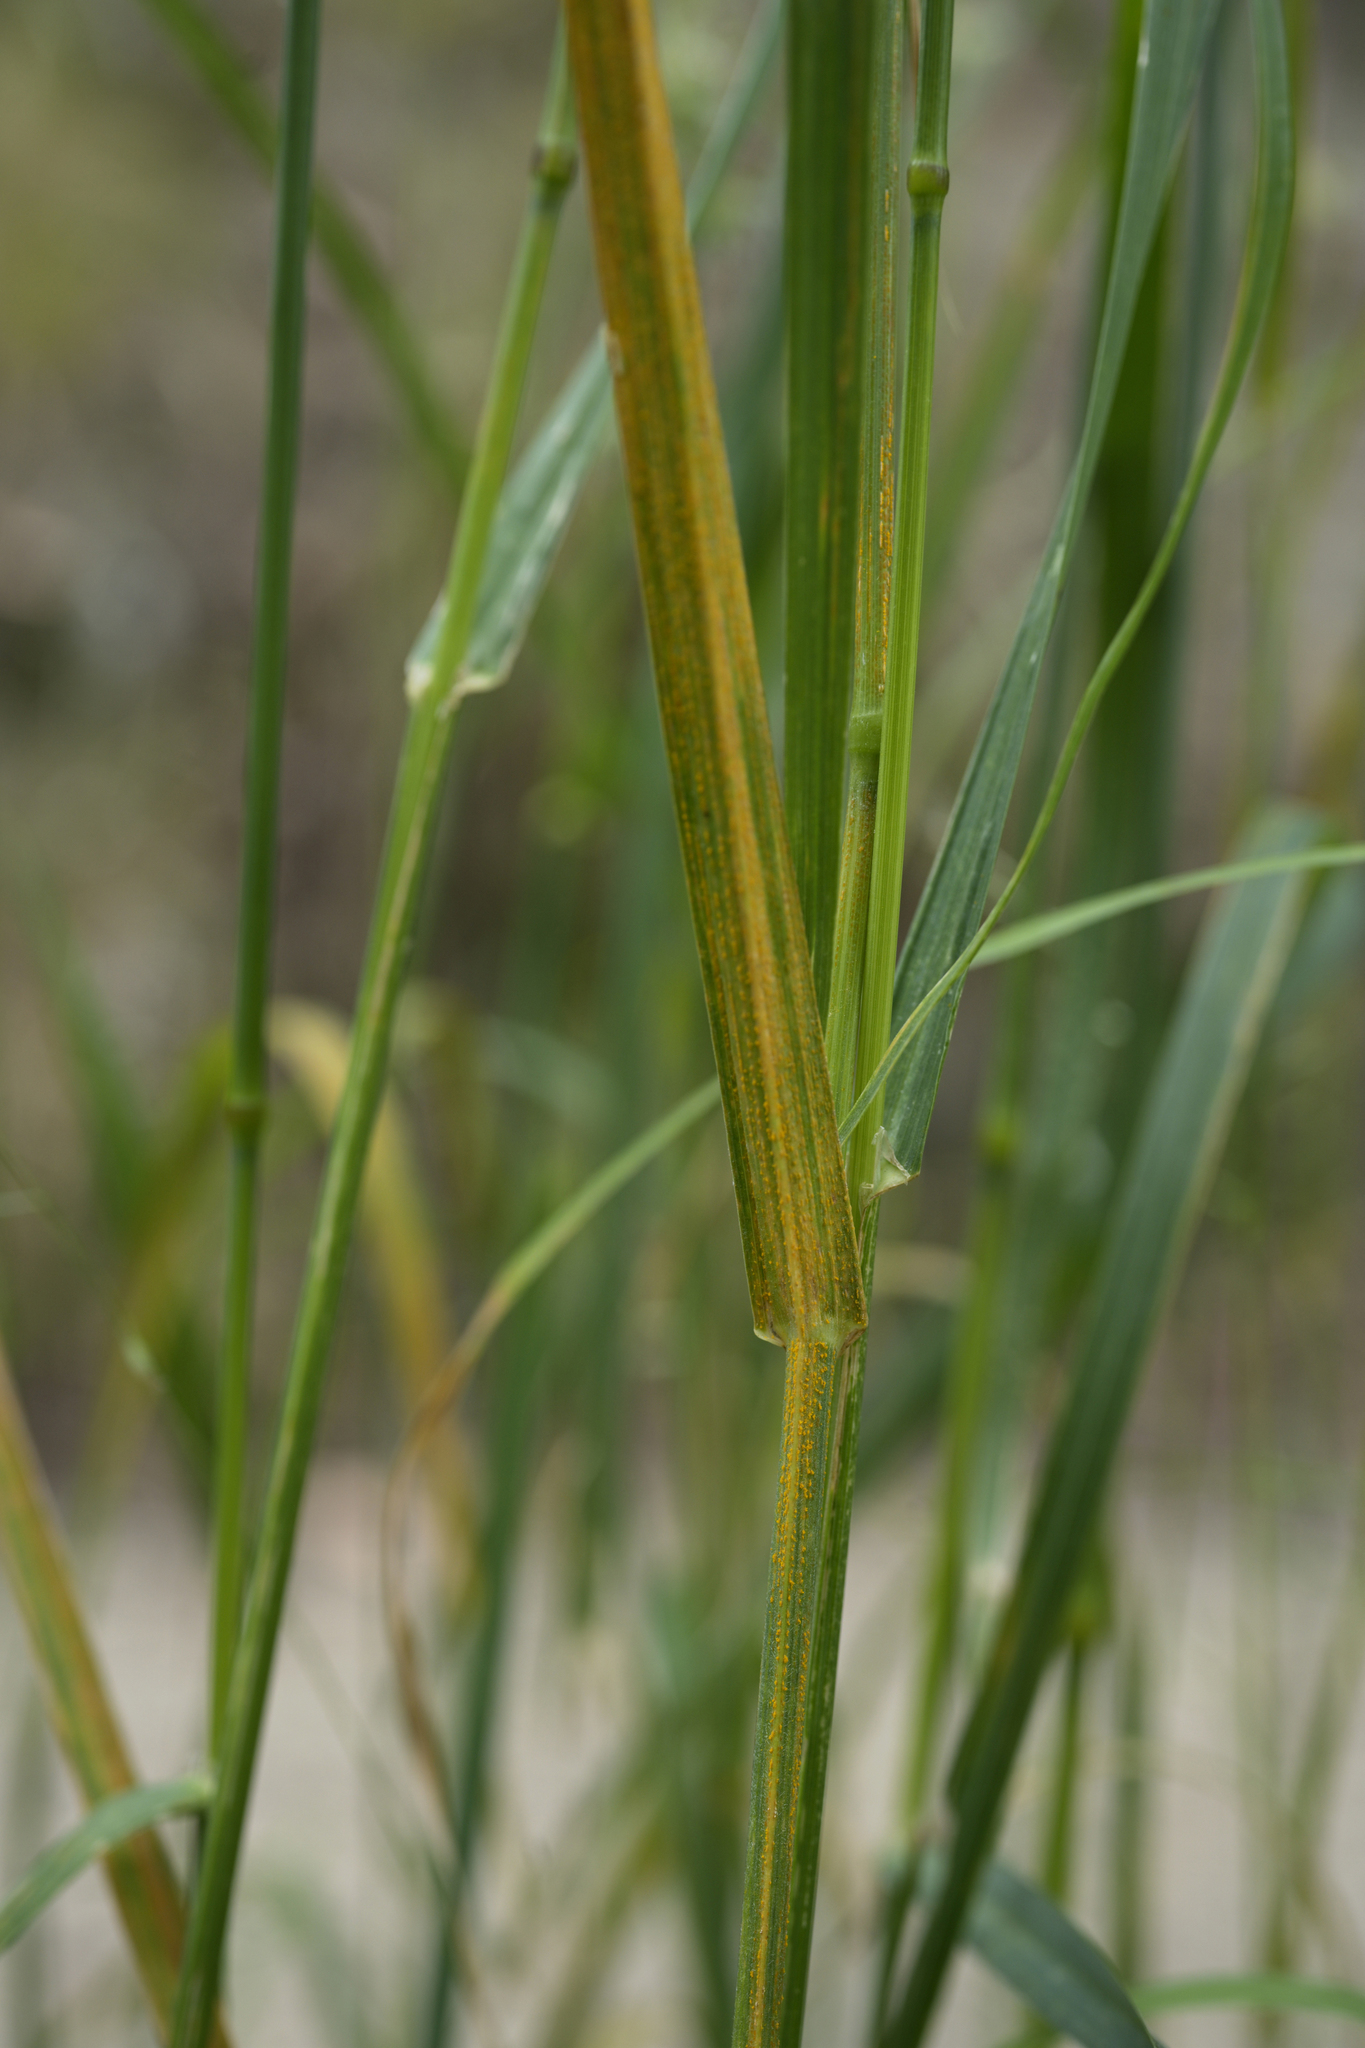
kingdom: Fungi
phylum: Basidiomycota
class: Pucciniomycetes
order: Pucciniales
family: Pucciniaceae
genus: Puccinia
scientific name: Puccinia striiformoides
